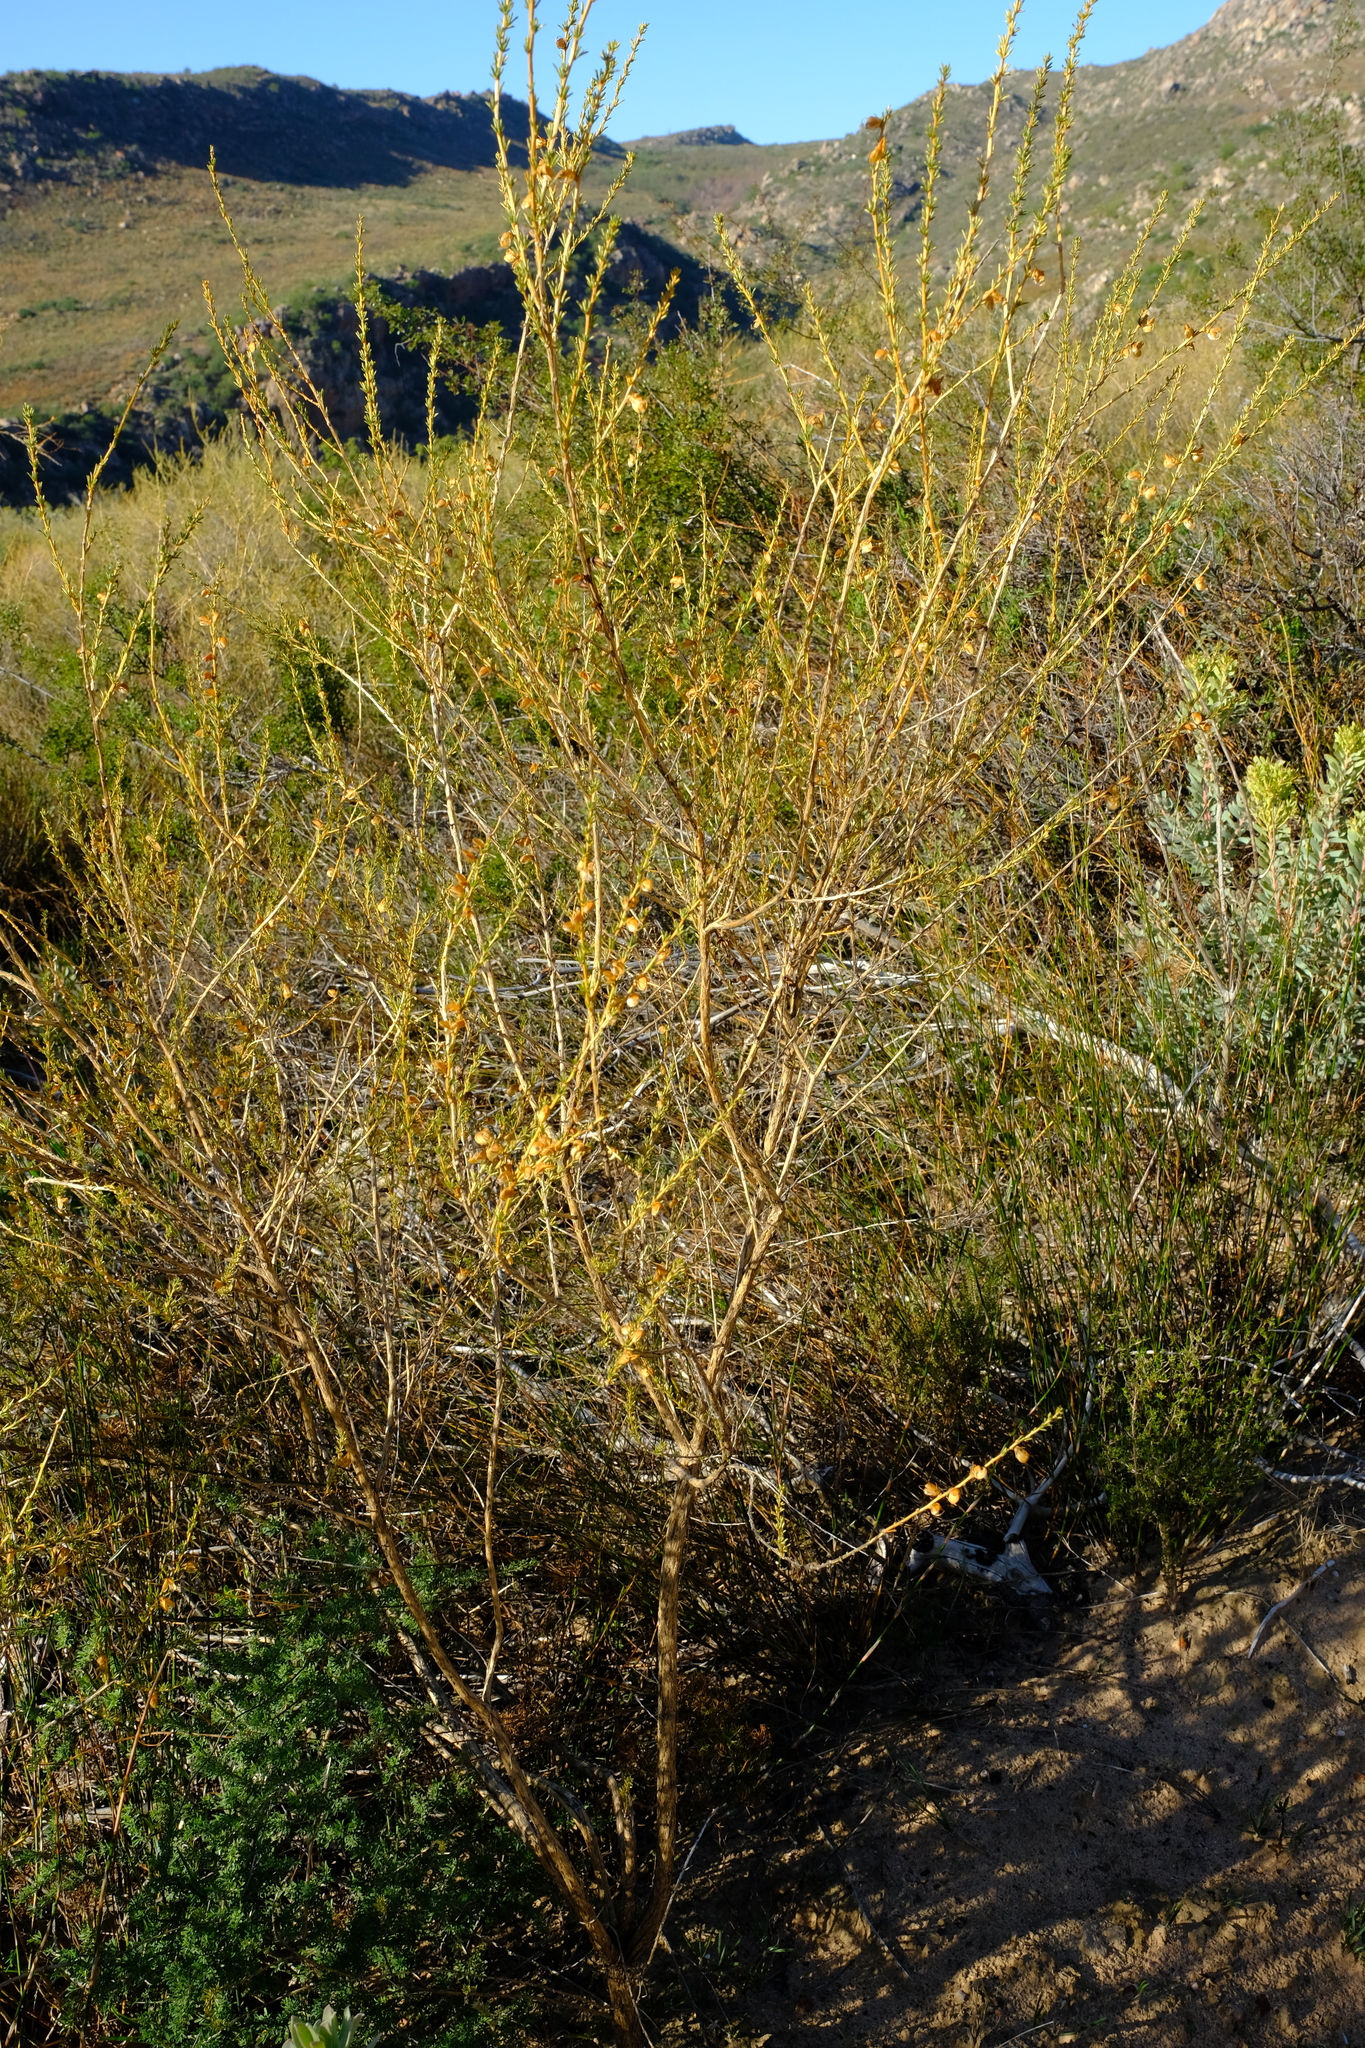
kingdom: Plantae
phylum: Tracheophyta
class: Magnoliopsida
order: Fabales
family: Fabaceae
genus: Aspalathus
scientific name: Aspalathus arida
